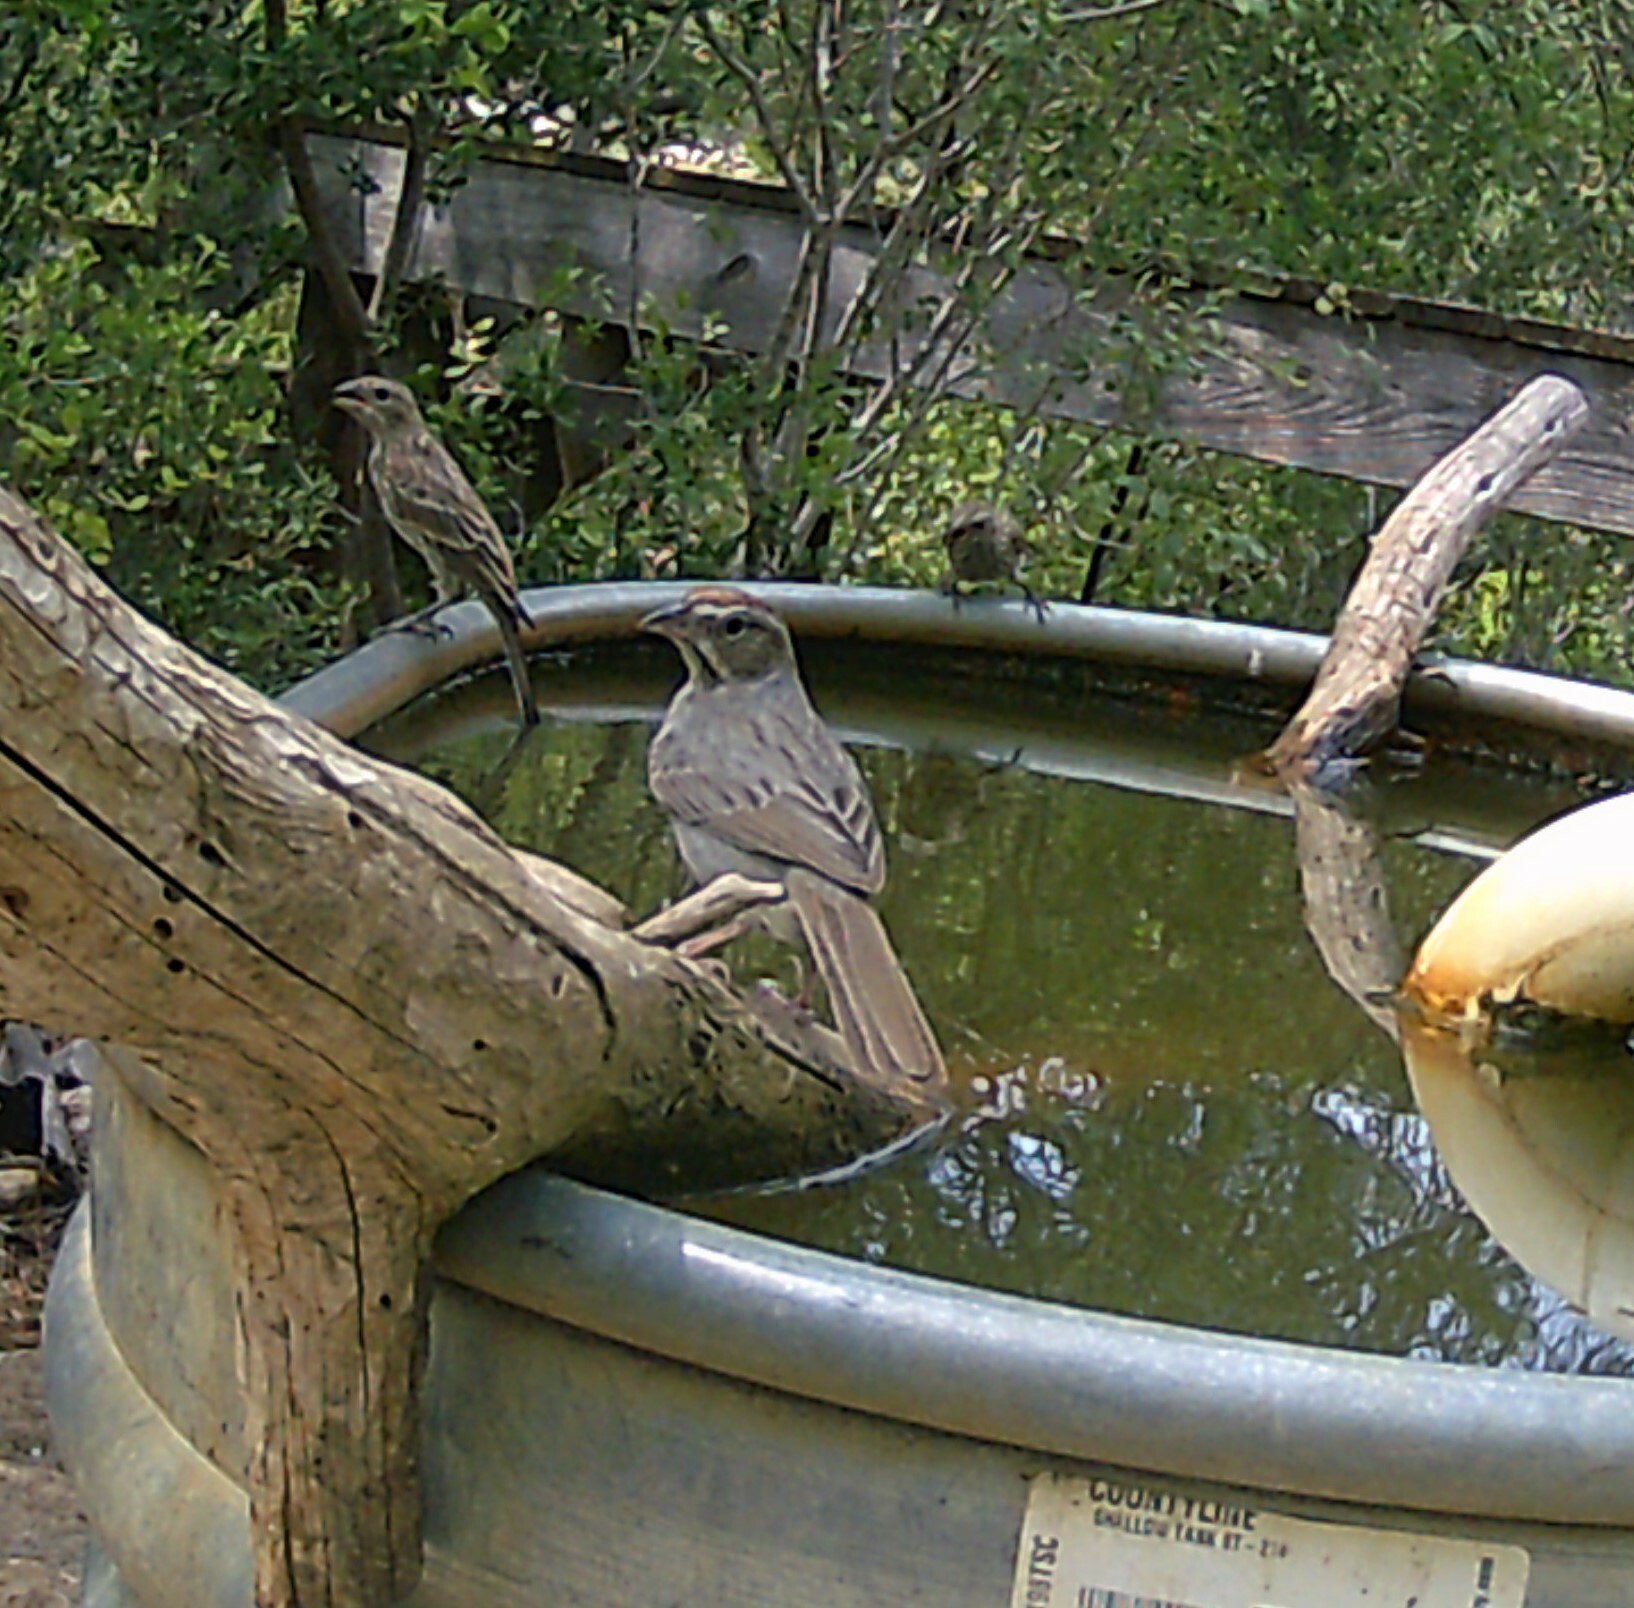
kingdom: Animalia
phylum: Chordata
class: Aves
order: Passeriformes
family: Passerellidae
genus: Aimophila
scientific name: Aimophila ruficeps
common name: Rufous-crowned sparrow
